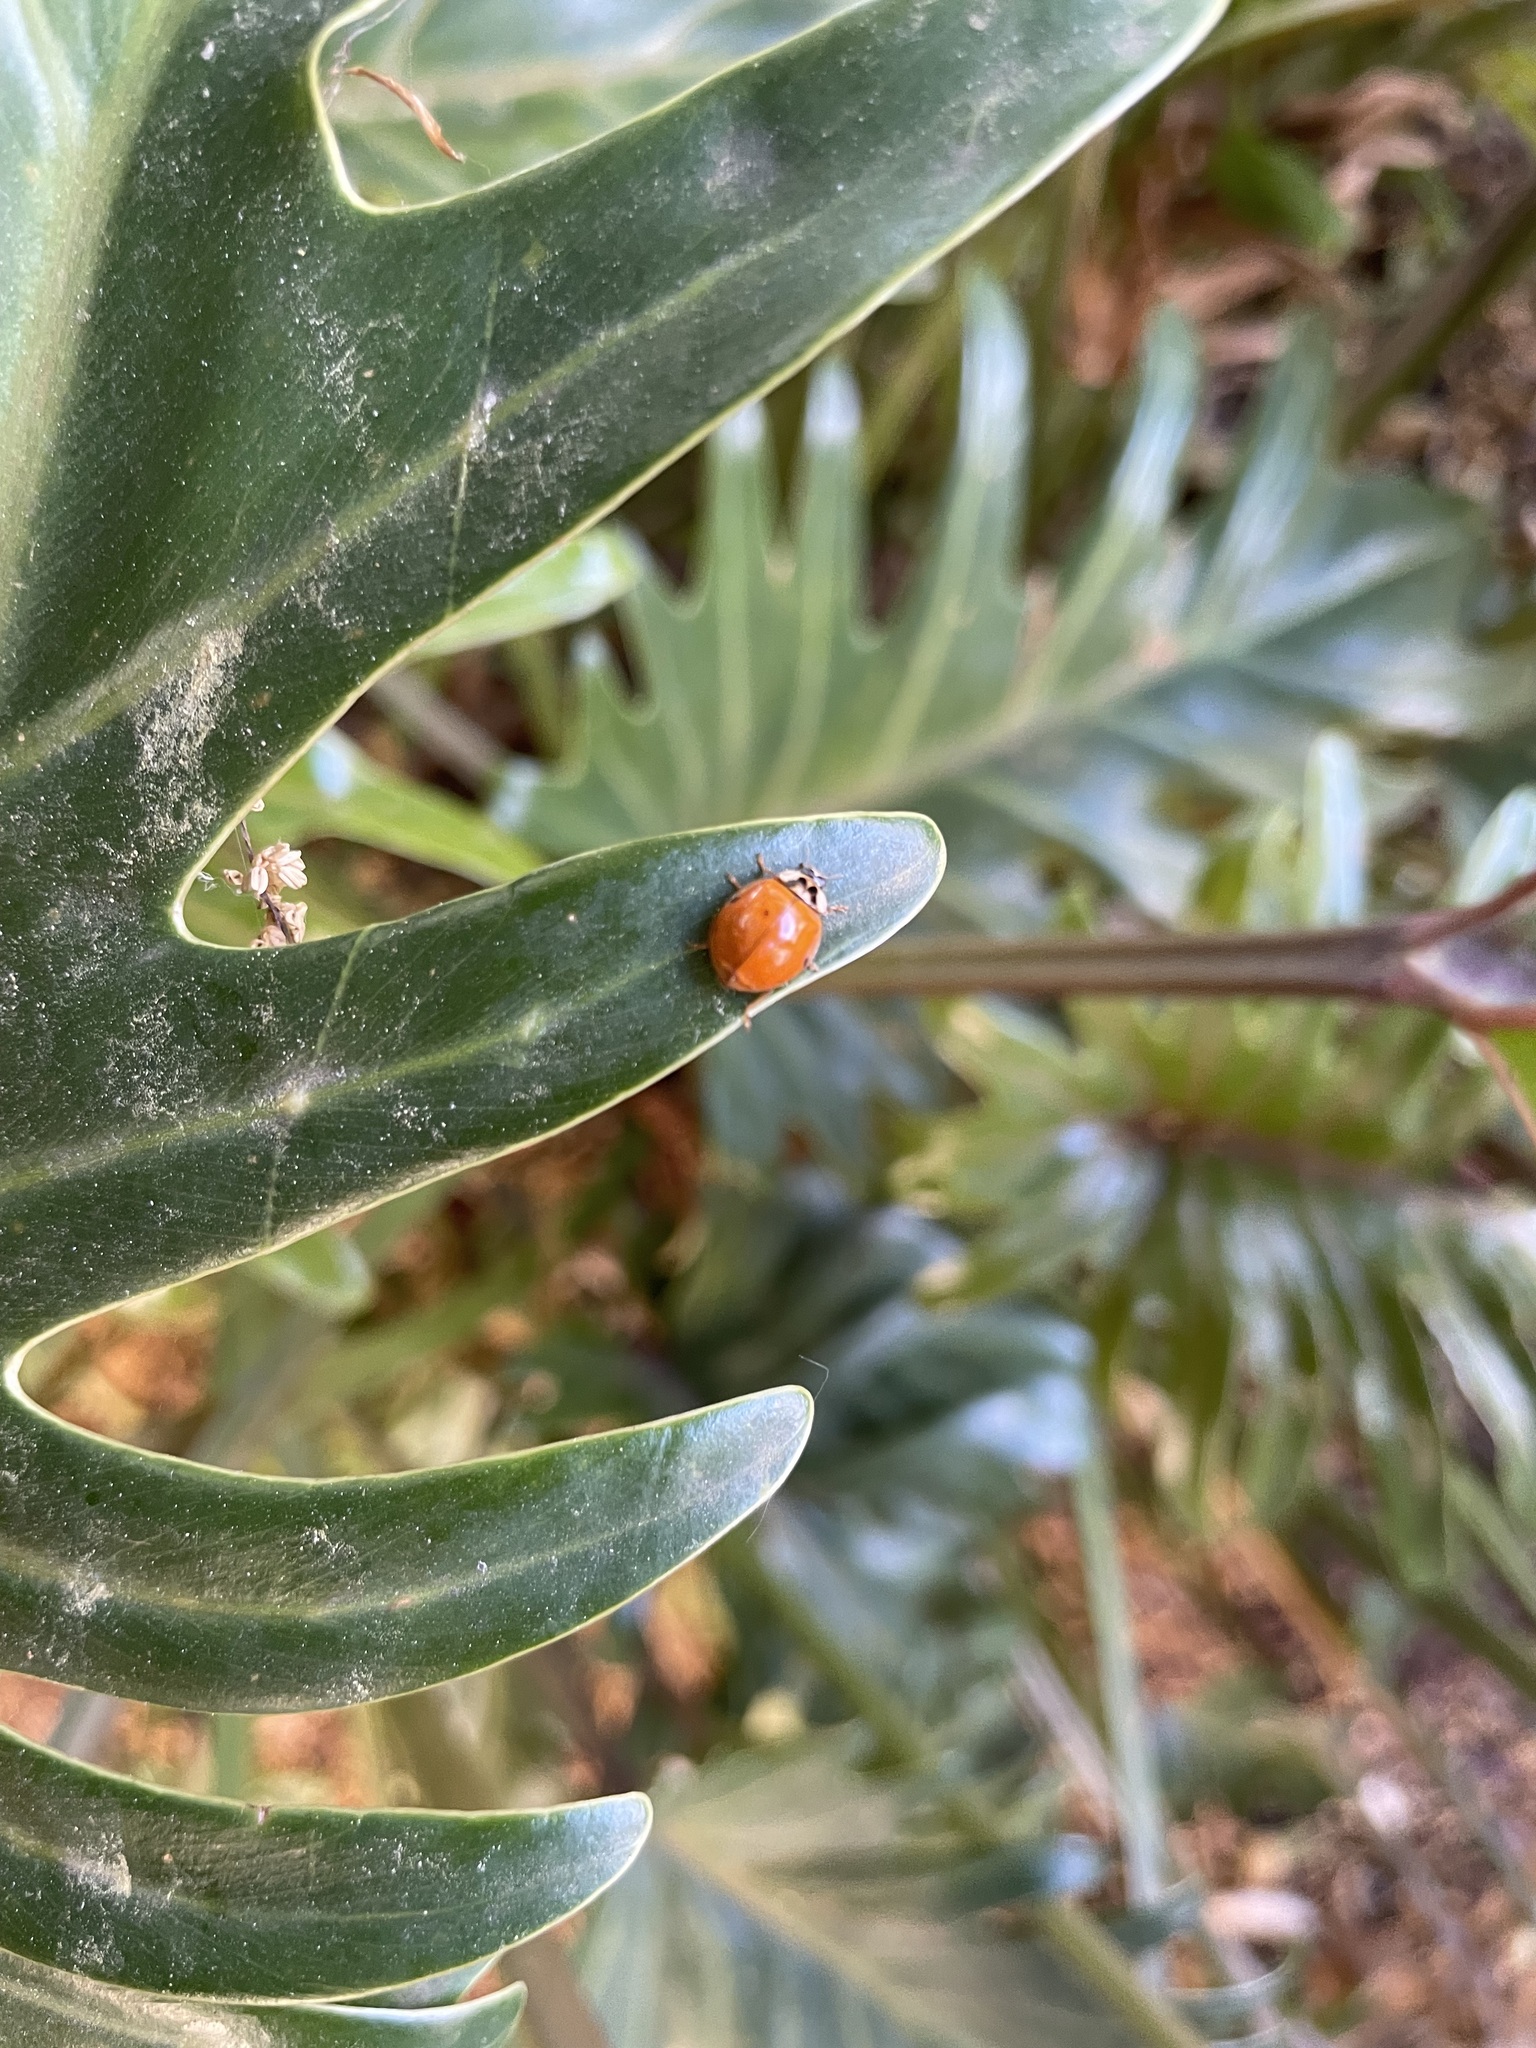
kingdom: Animalia
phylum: Arthropoda
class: Insecta
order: Coleoptera
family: Coccinellidae
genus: Harmonia
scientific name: Harmonia axyridis
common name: Harlequin ladybird
